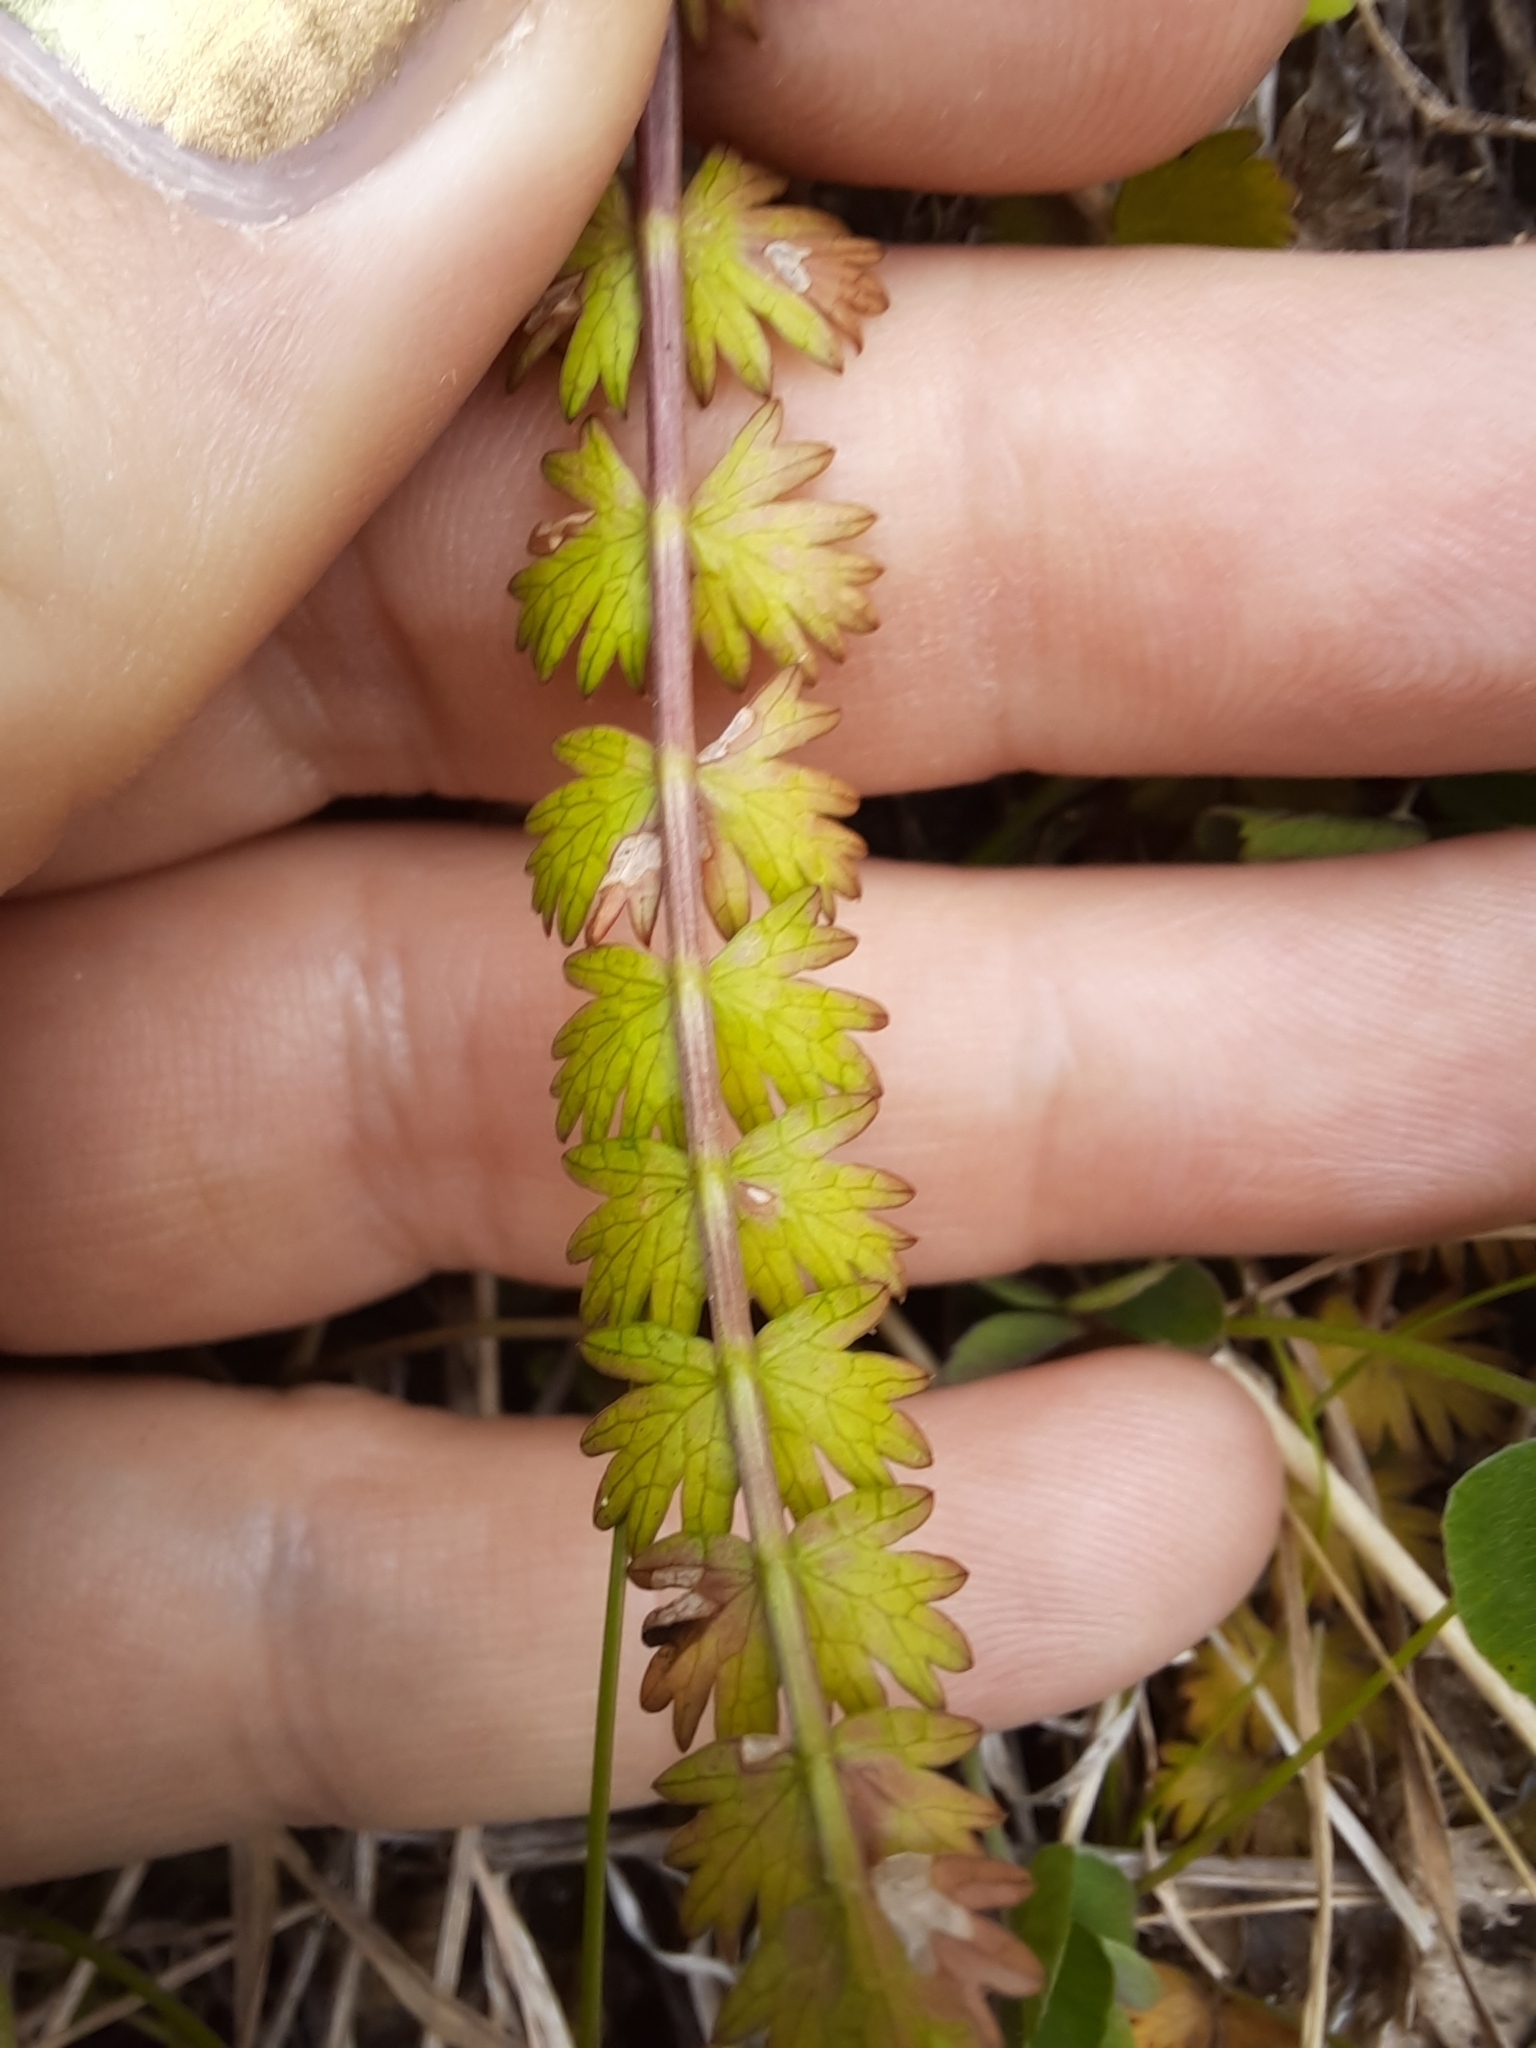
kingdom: Plantae
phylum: Tracheophyta
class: Magnoliopsida
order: Apiales
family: Apiaceae
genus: Anisotome
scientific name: Anisotome aromatica
